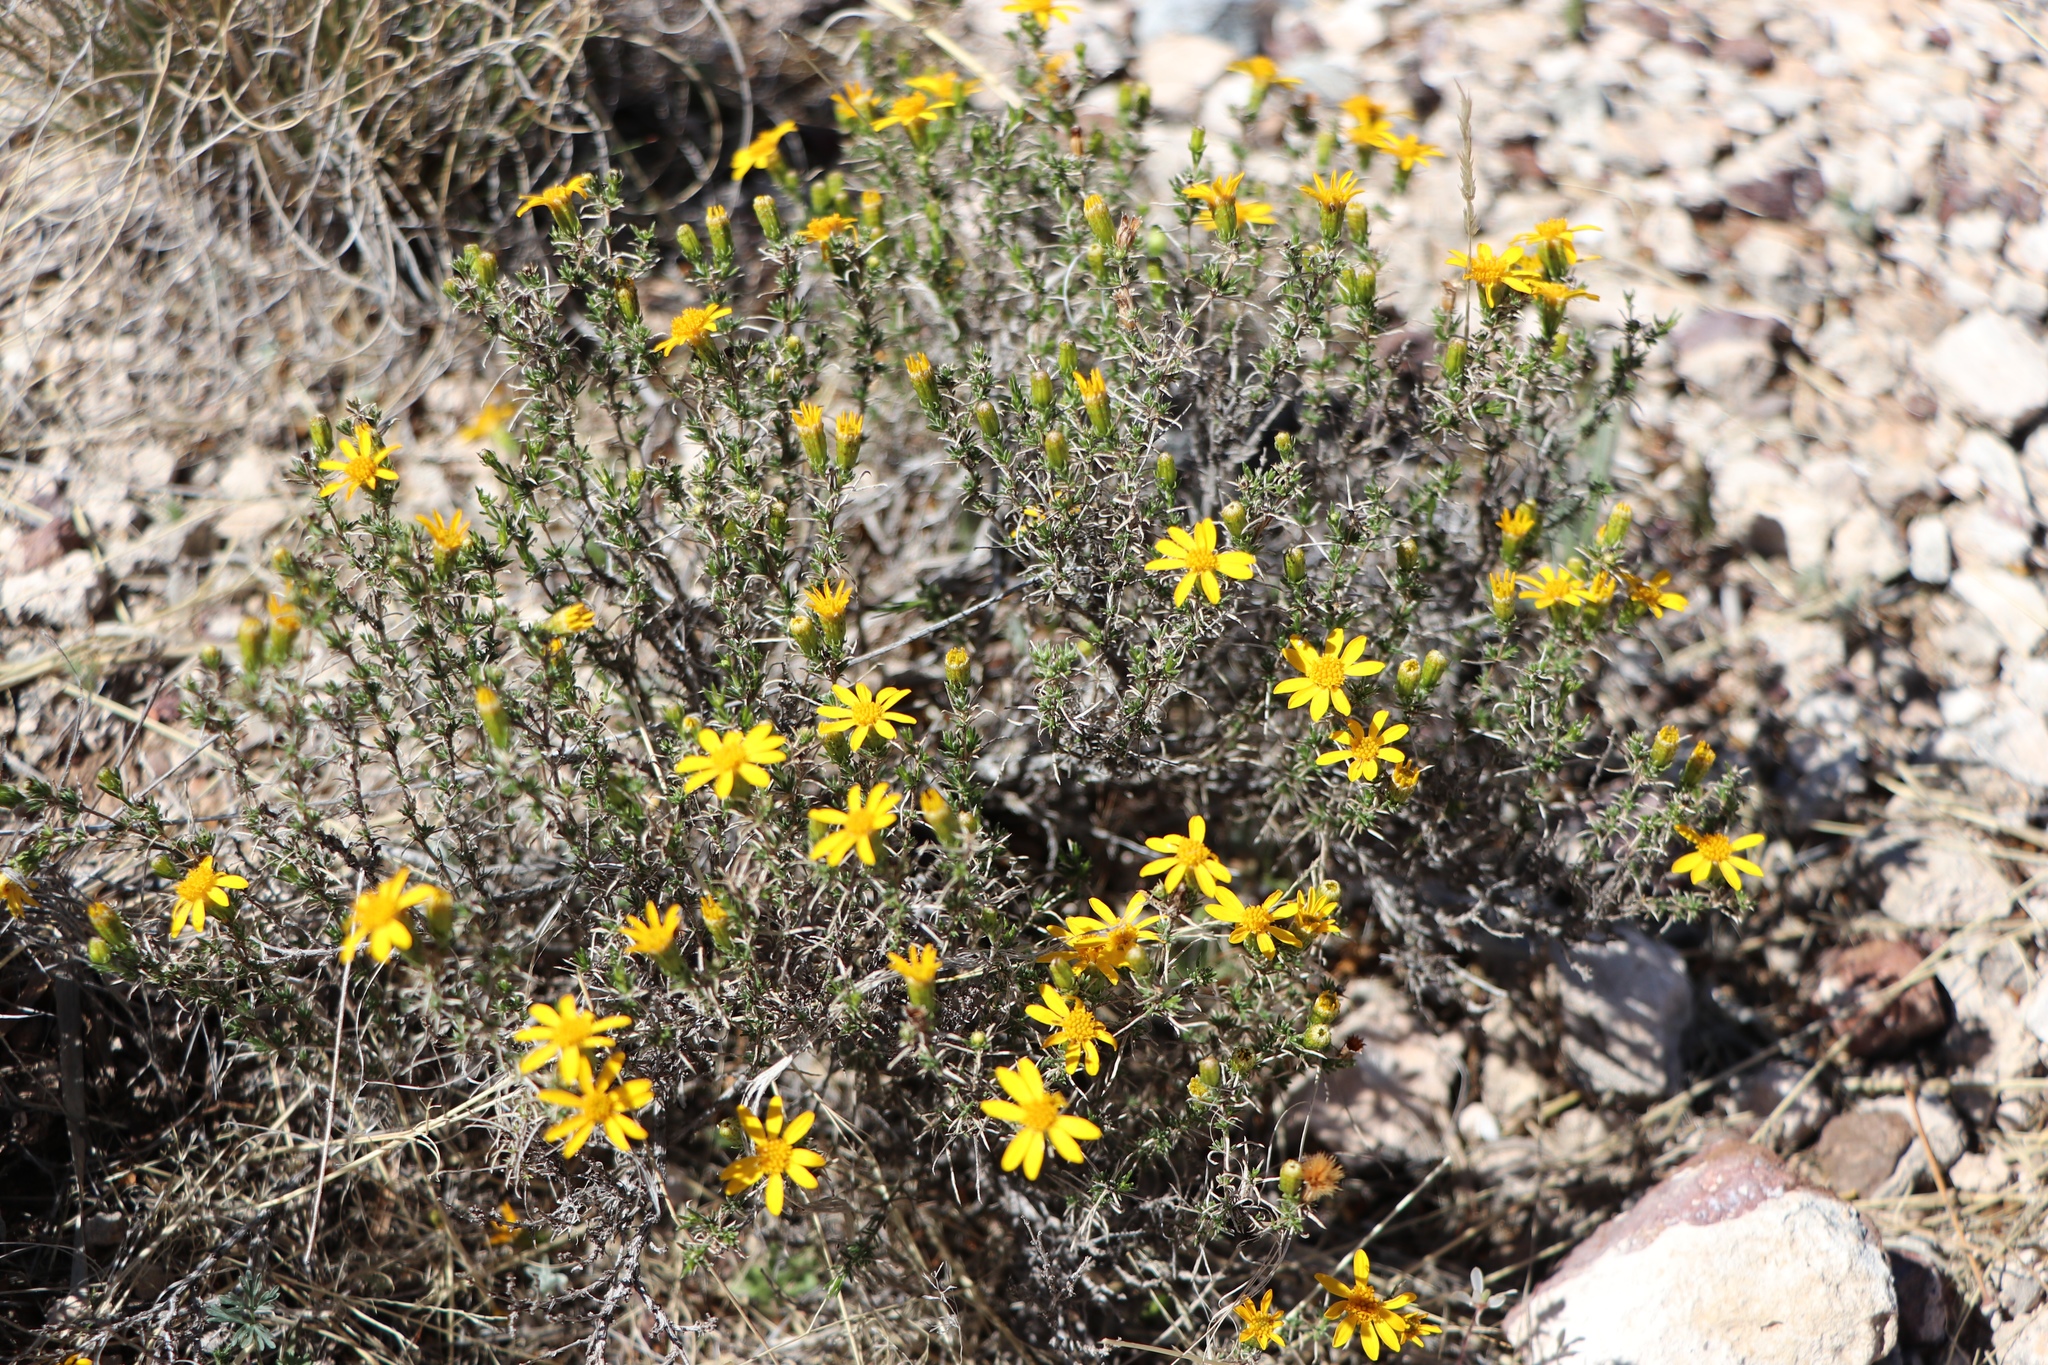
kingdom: Plantae
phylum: Tracheophyta
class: Magnoliopsida
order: Asterales
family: Asteraceae
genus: Thymophylla
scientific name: Thymophylla acerosa
